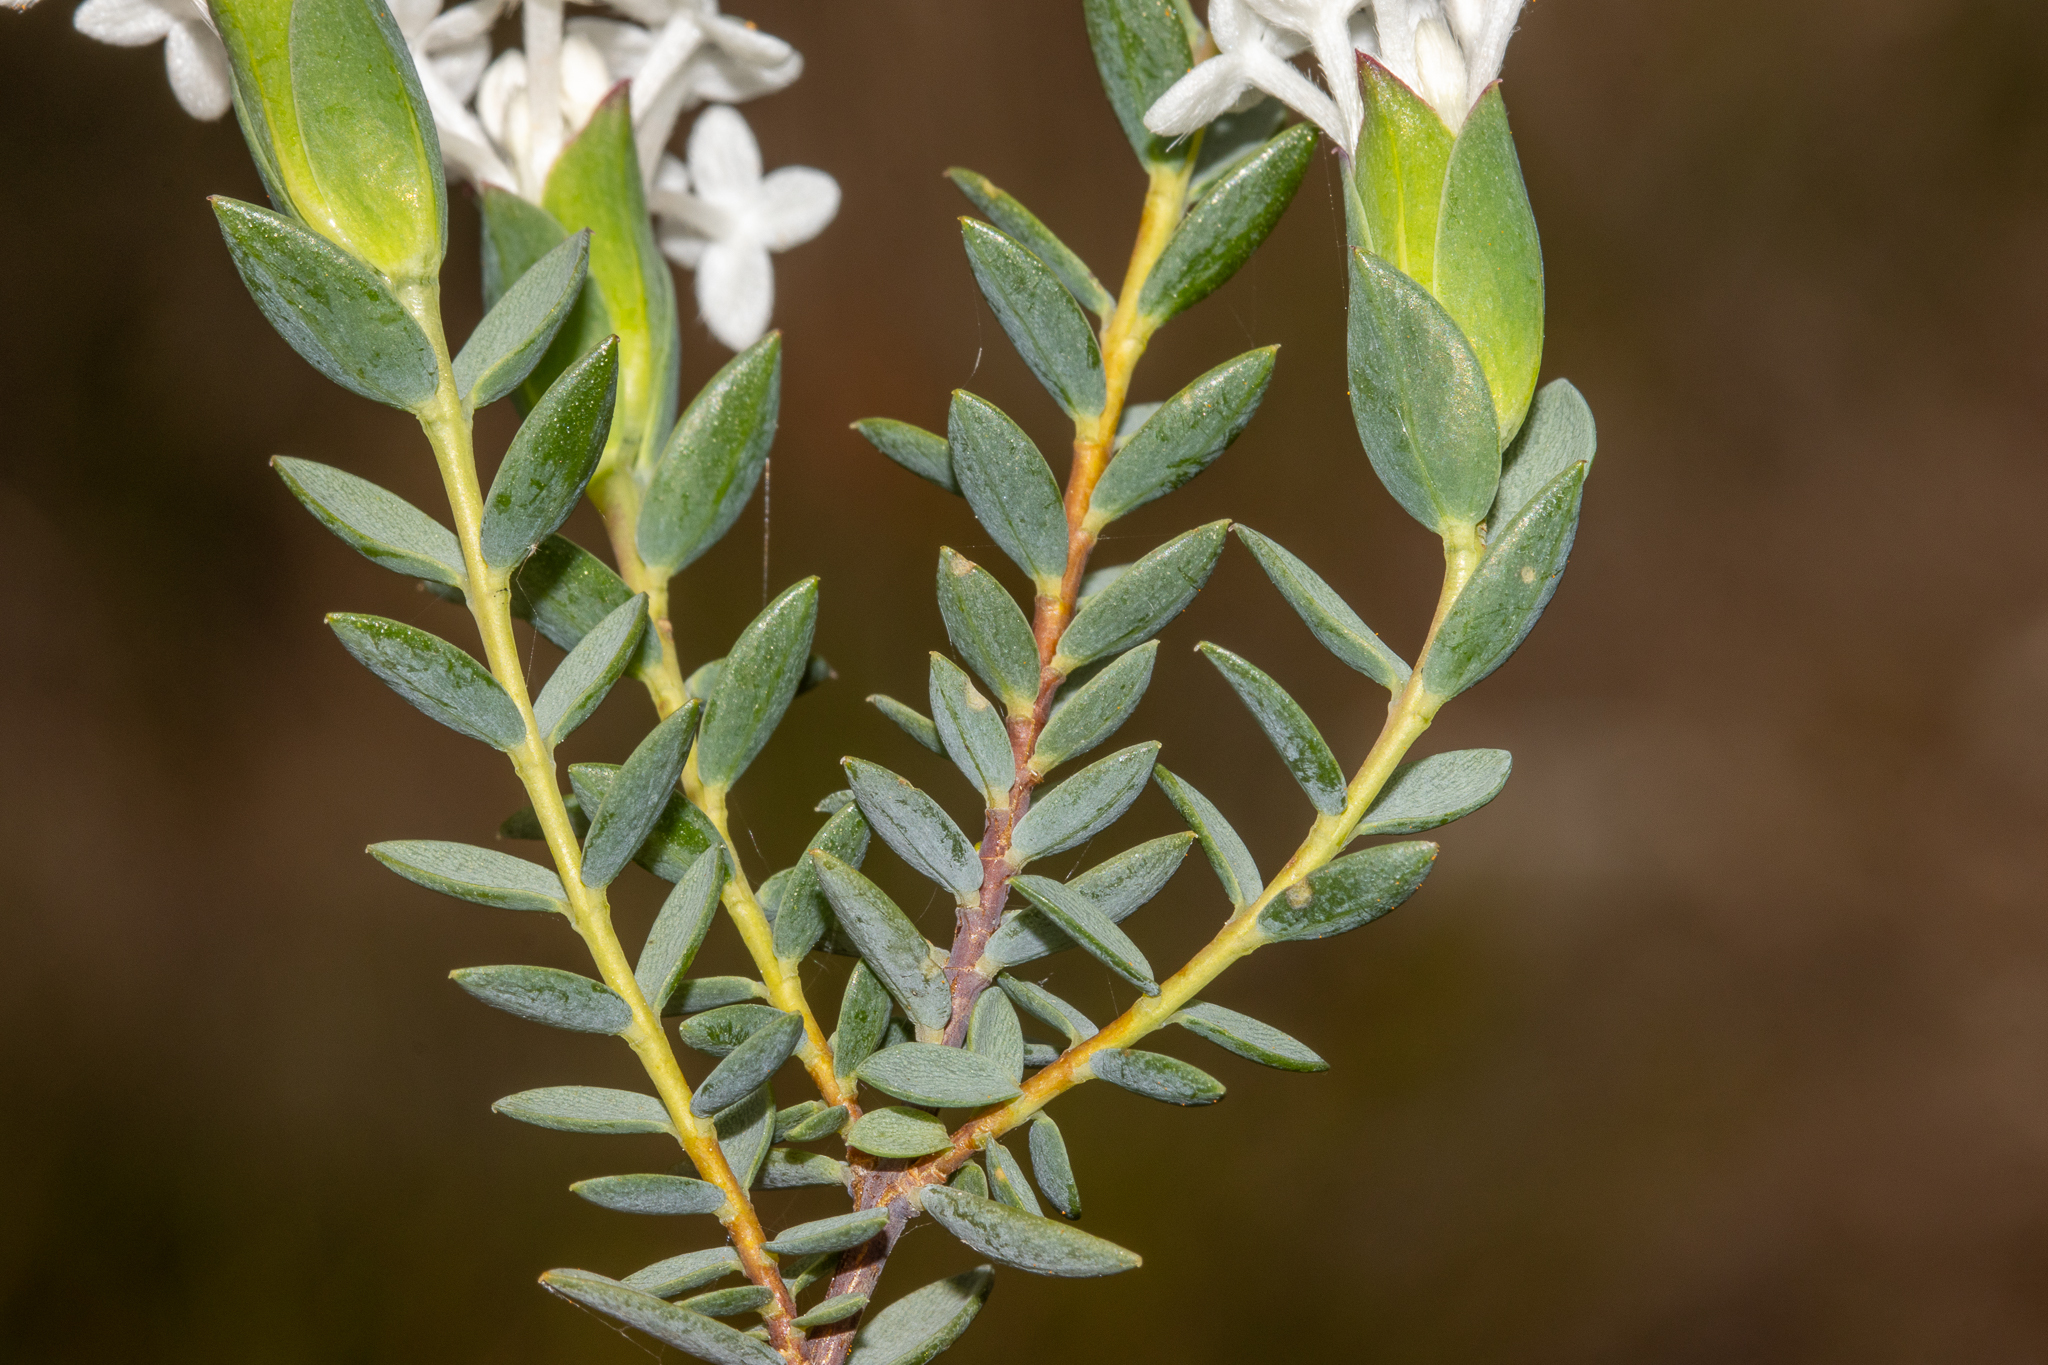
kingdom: Plantae
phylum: Tracheophyta
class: Magnoliopsida
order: Malvales
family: Thymelaeaceae
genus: Pimelea
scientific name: Pimelea glauca
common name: Smooth riceflower
